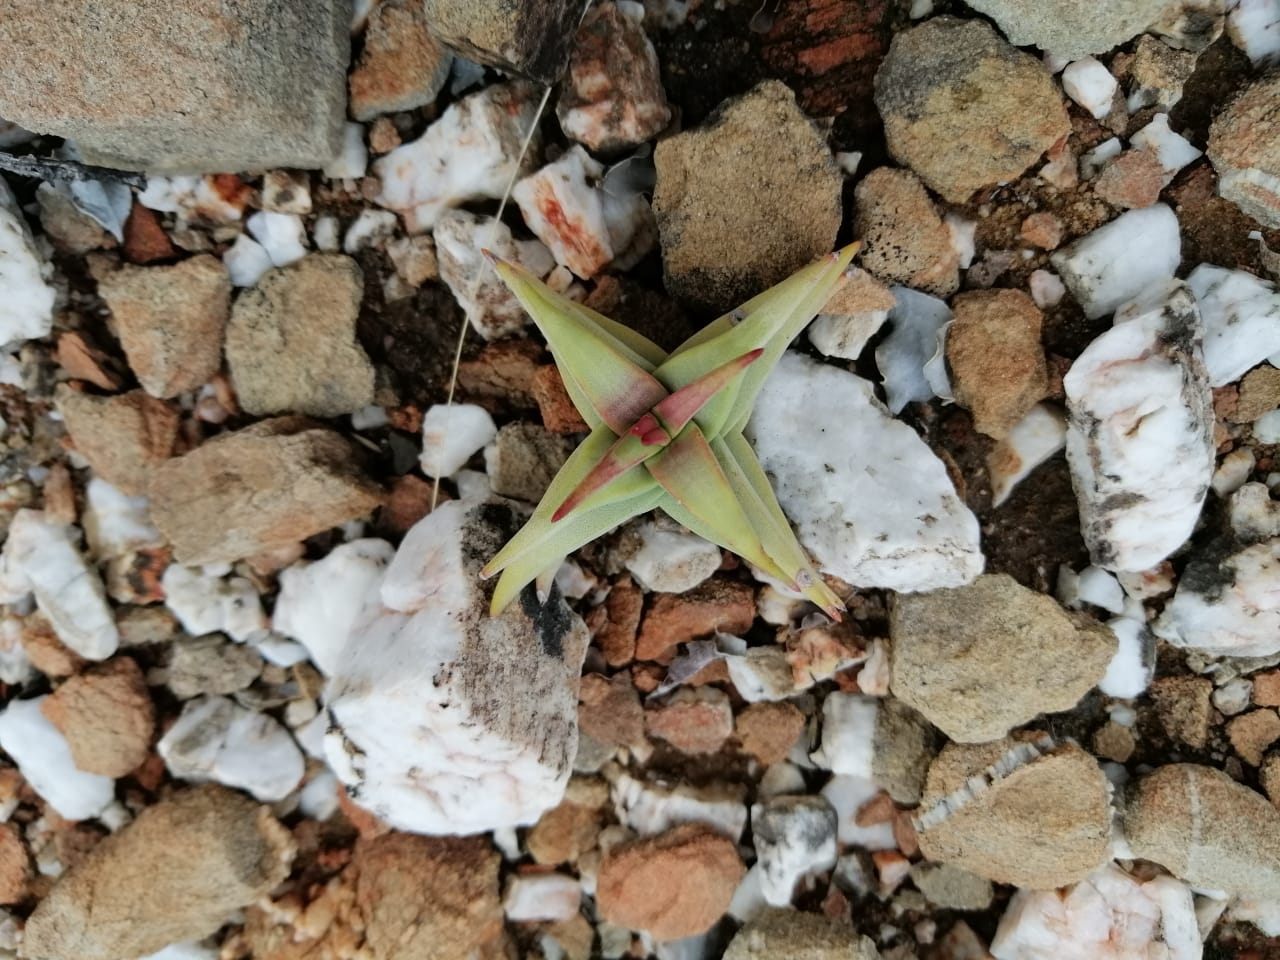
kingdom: Plantae
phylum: Tracheophyta
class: Magnoliopsida
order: Saxifragales
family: Crassulaceae
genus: Crassula
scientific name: Crassula congesta
